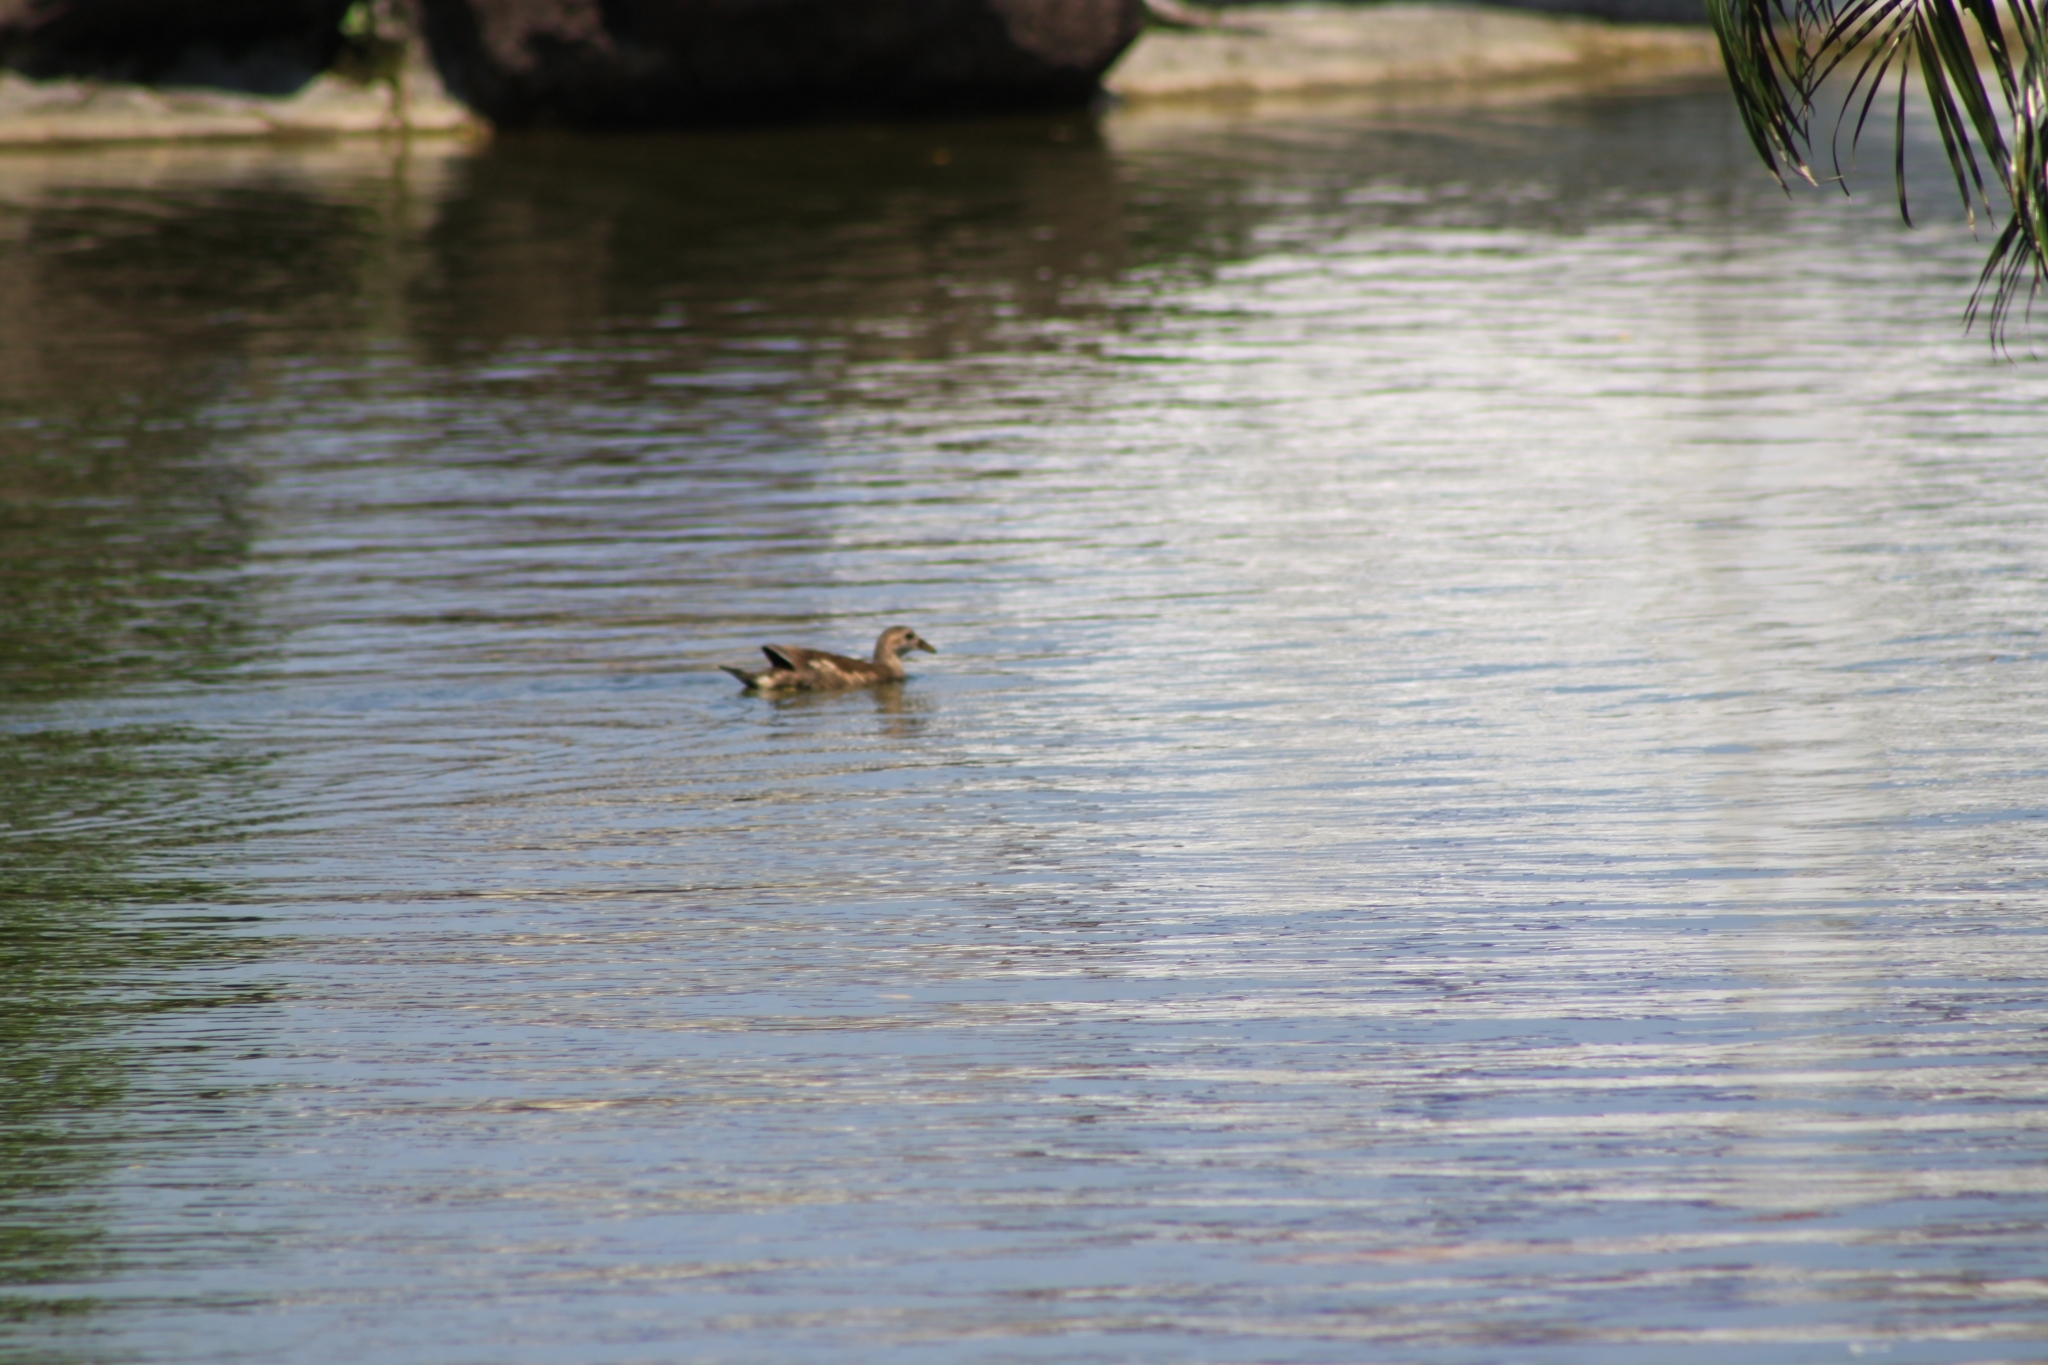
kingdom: Animalia
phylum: Chordata
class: Aves
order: Gruiformes
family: Rallidae
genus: Gallinula
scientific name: Gallinula chloropus
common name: Common moorhen
